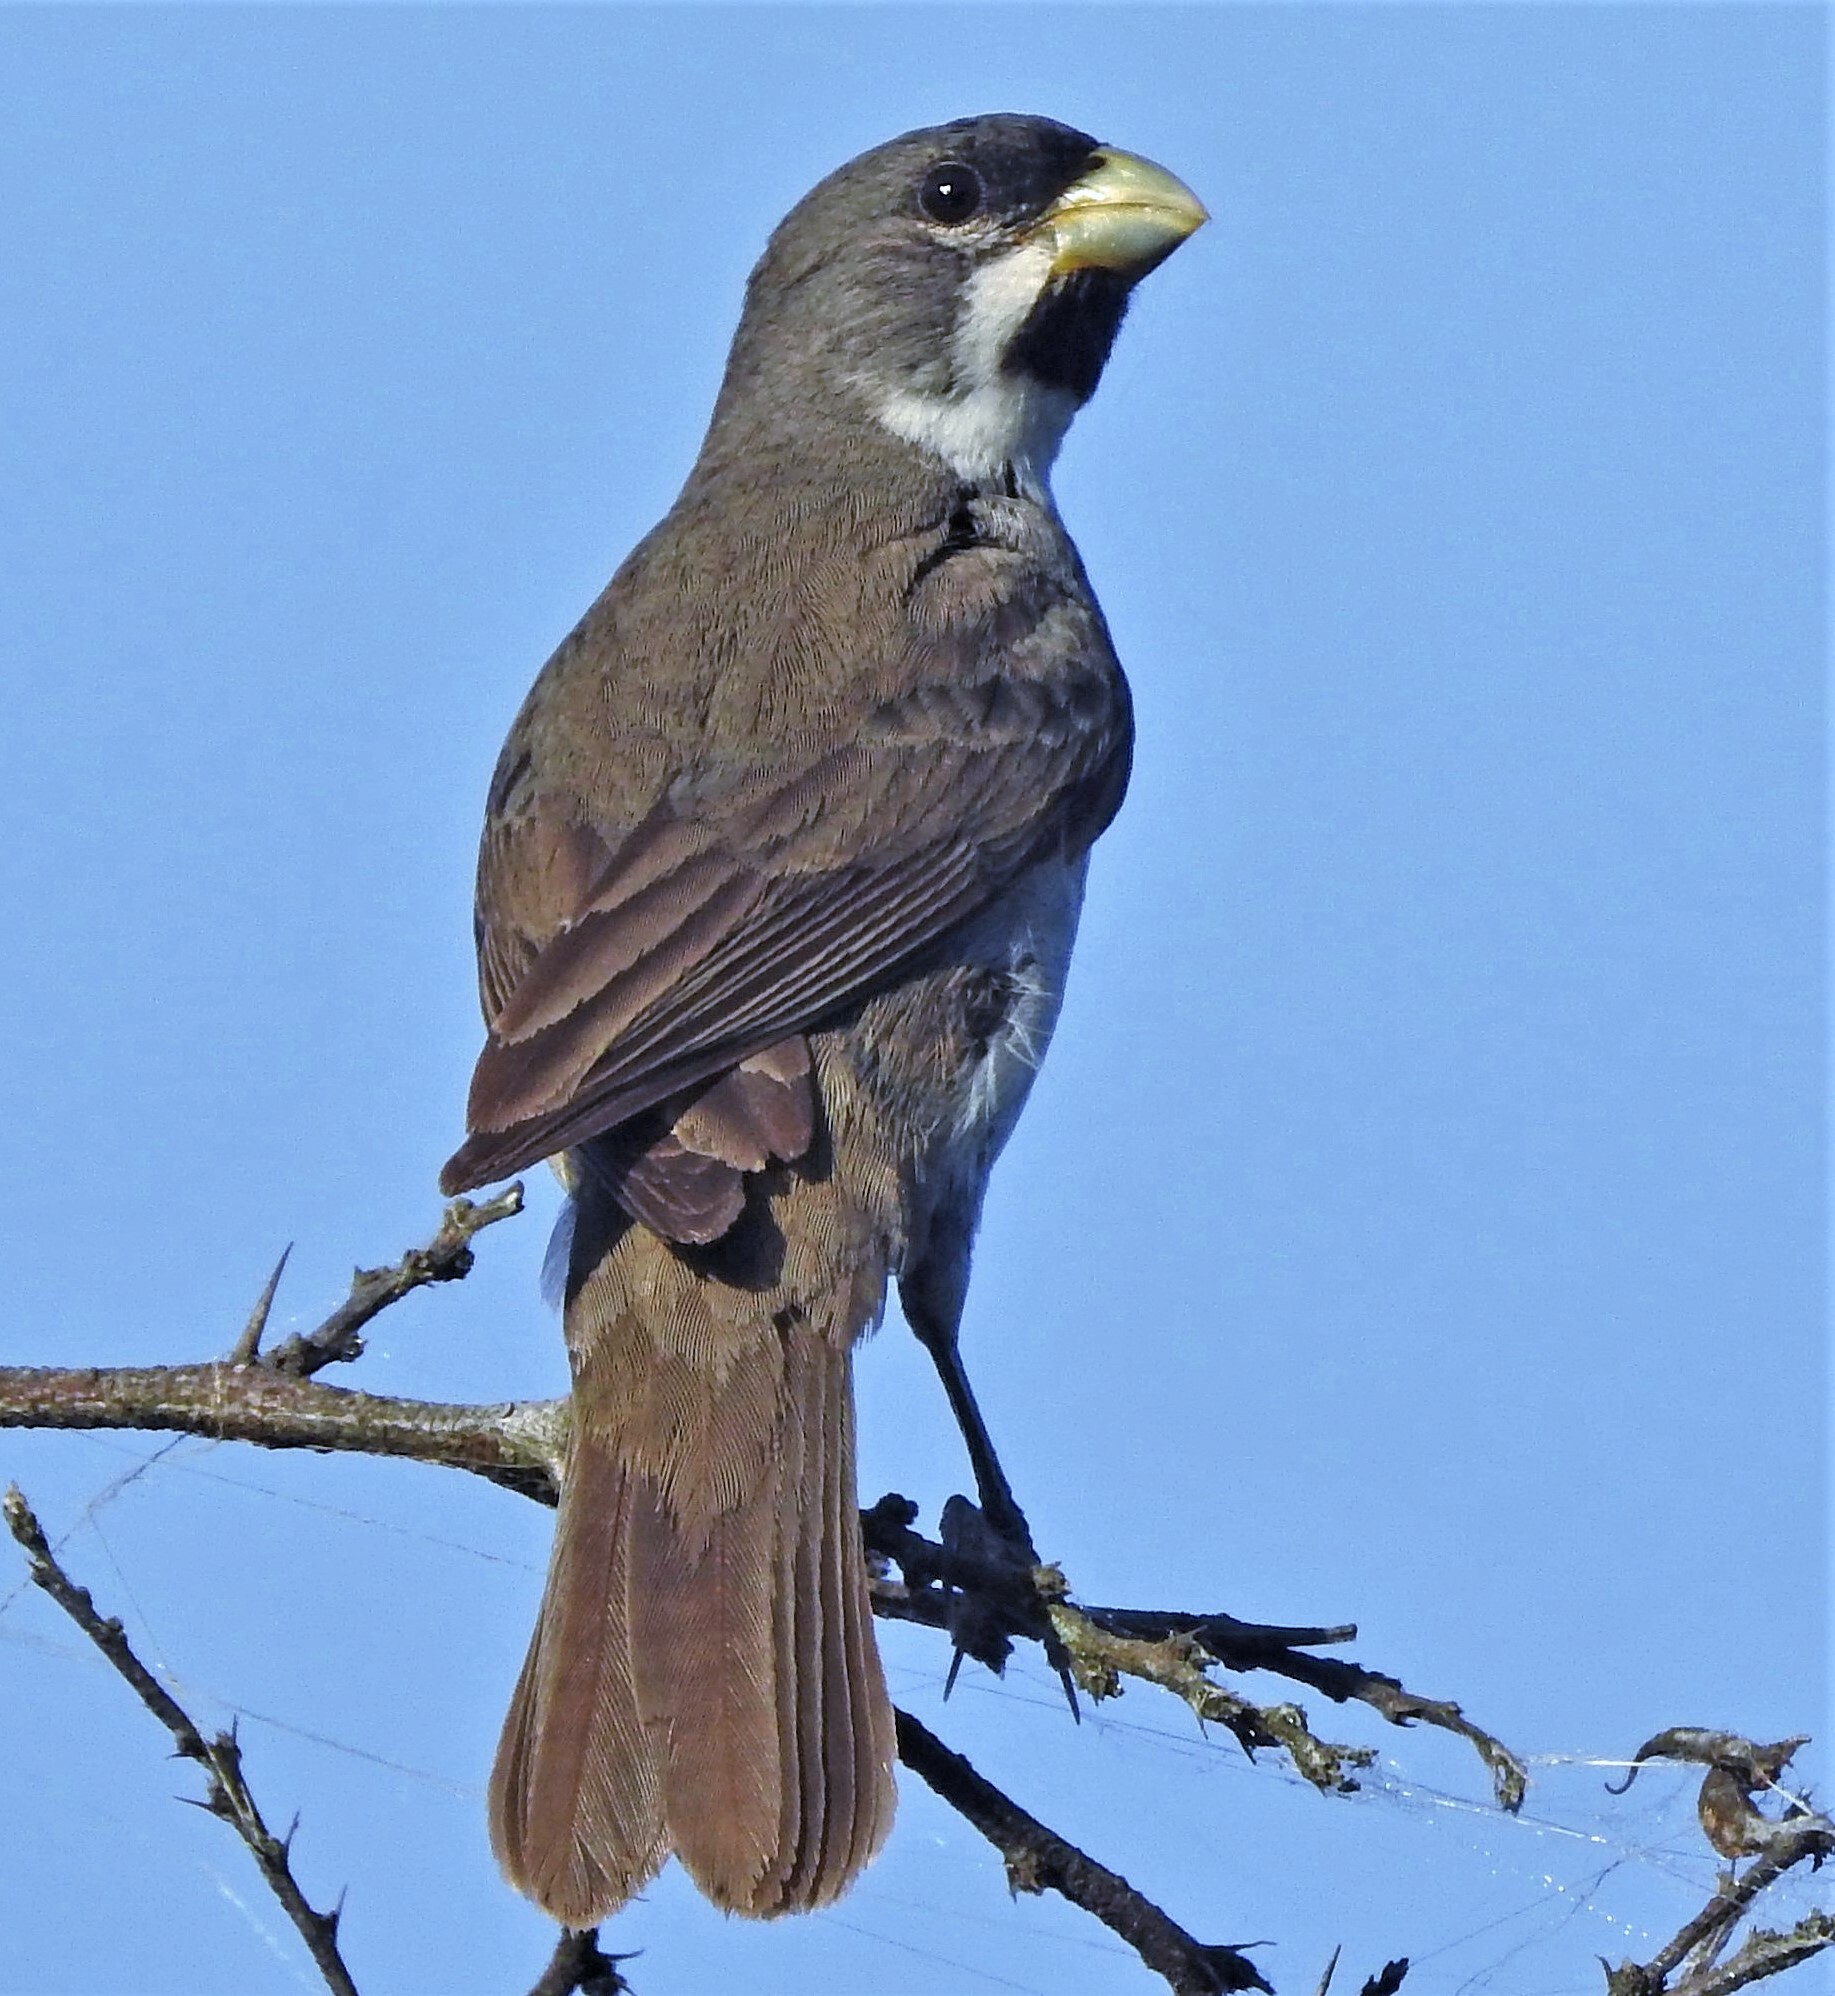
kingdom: Animalia
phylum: Chordata
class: Aves
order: Passeriformes
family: Thraupidae
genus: Sporophila
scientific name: Sporophila caerulescens
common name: Double-collared seedeater
